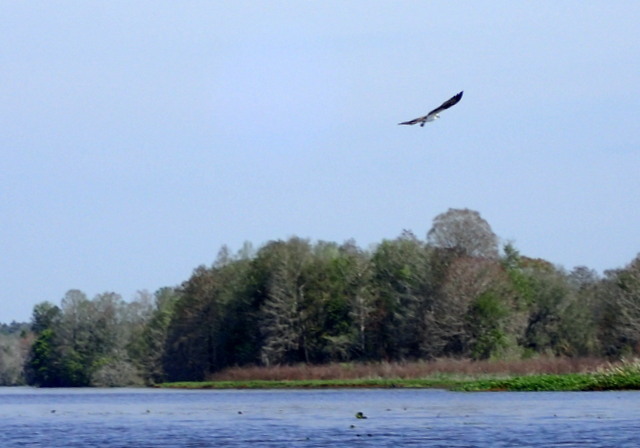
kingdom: Animalia
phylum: Chordata
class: Aves
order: Accipitriformes
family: Pandionidae
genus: Pandion
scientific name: Pandion haliaetus
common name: Osprey
